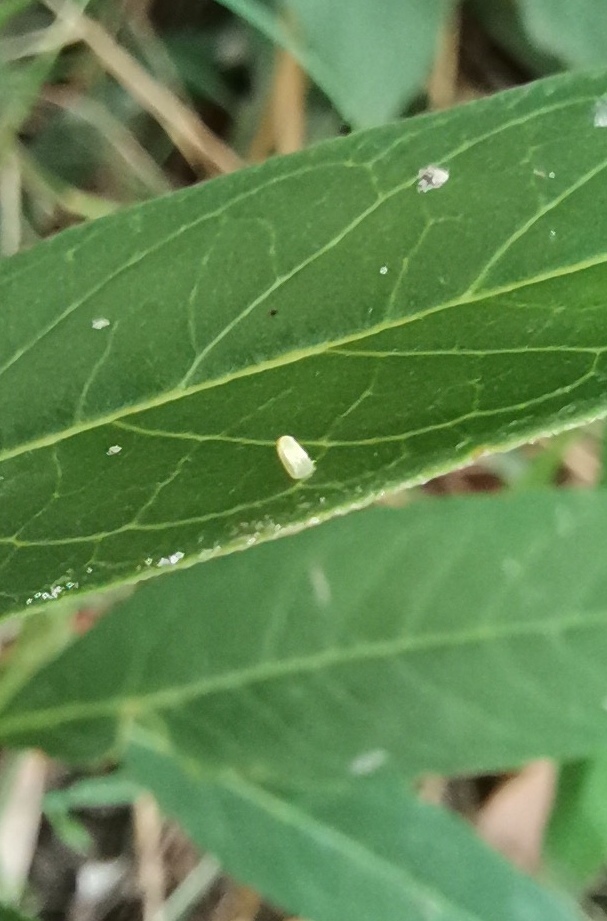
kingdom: Animalia
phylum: Arthropoda
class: Insecta
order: Lepidoptera
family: Nymphalidae
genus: Danaus
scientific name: Danaus plexippus
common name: Monarch
